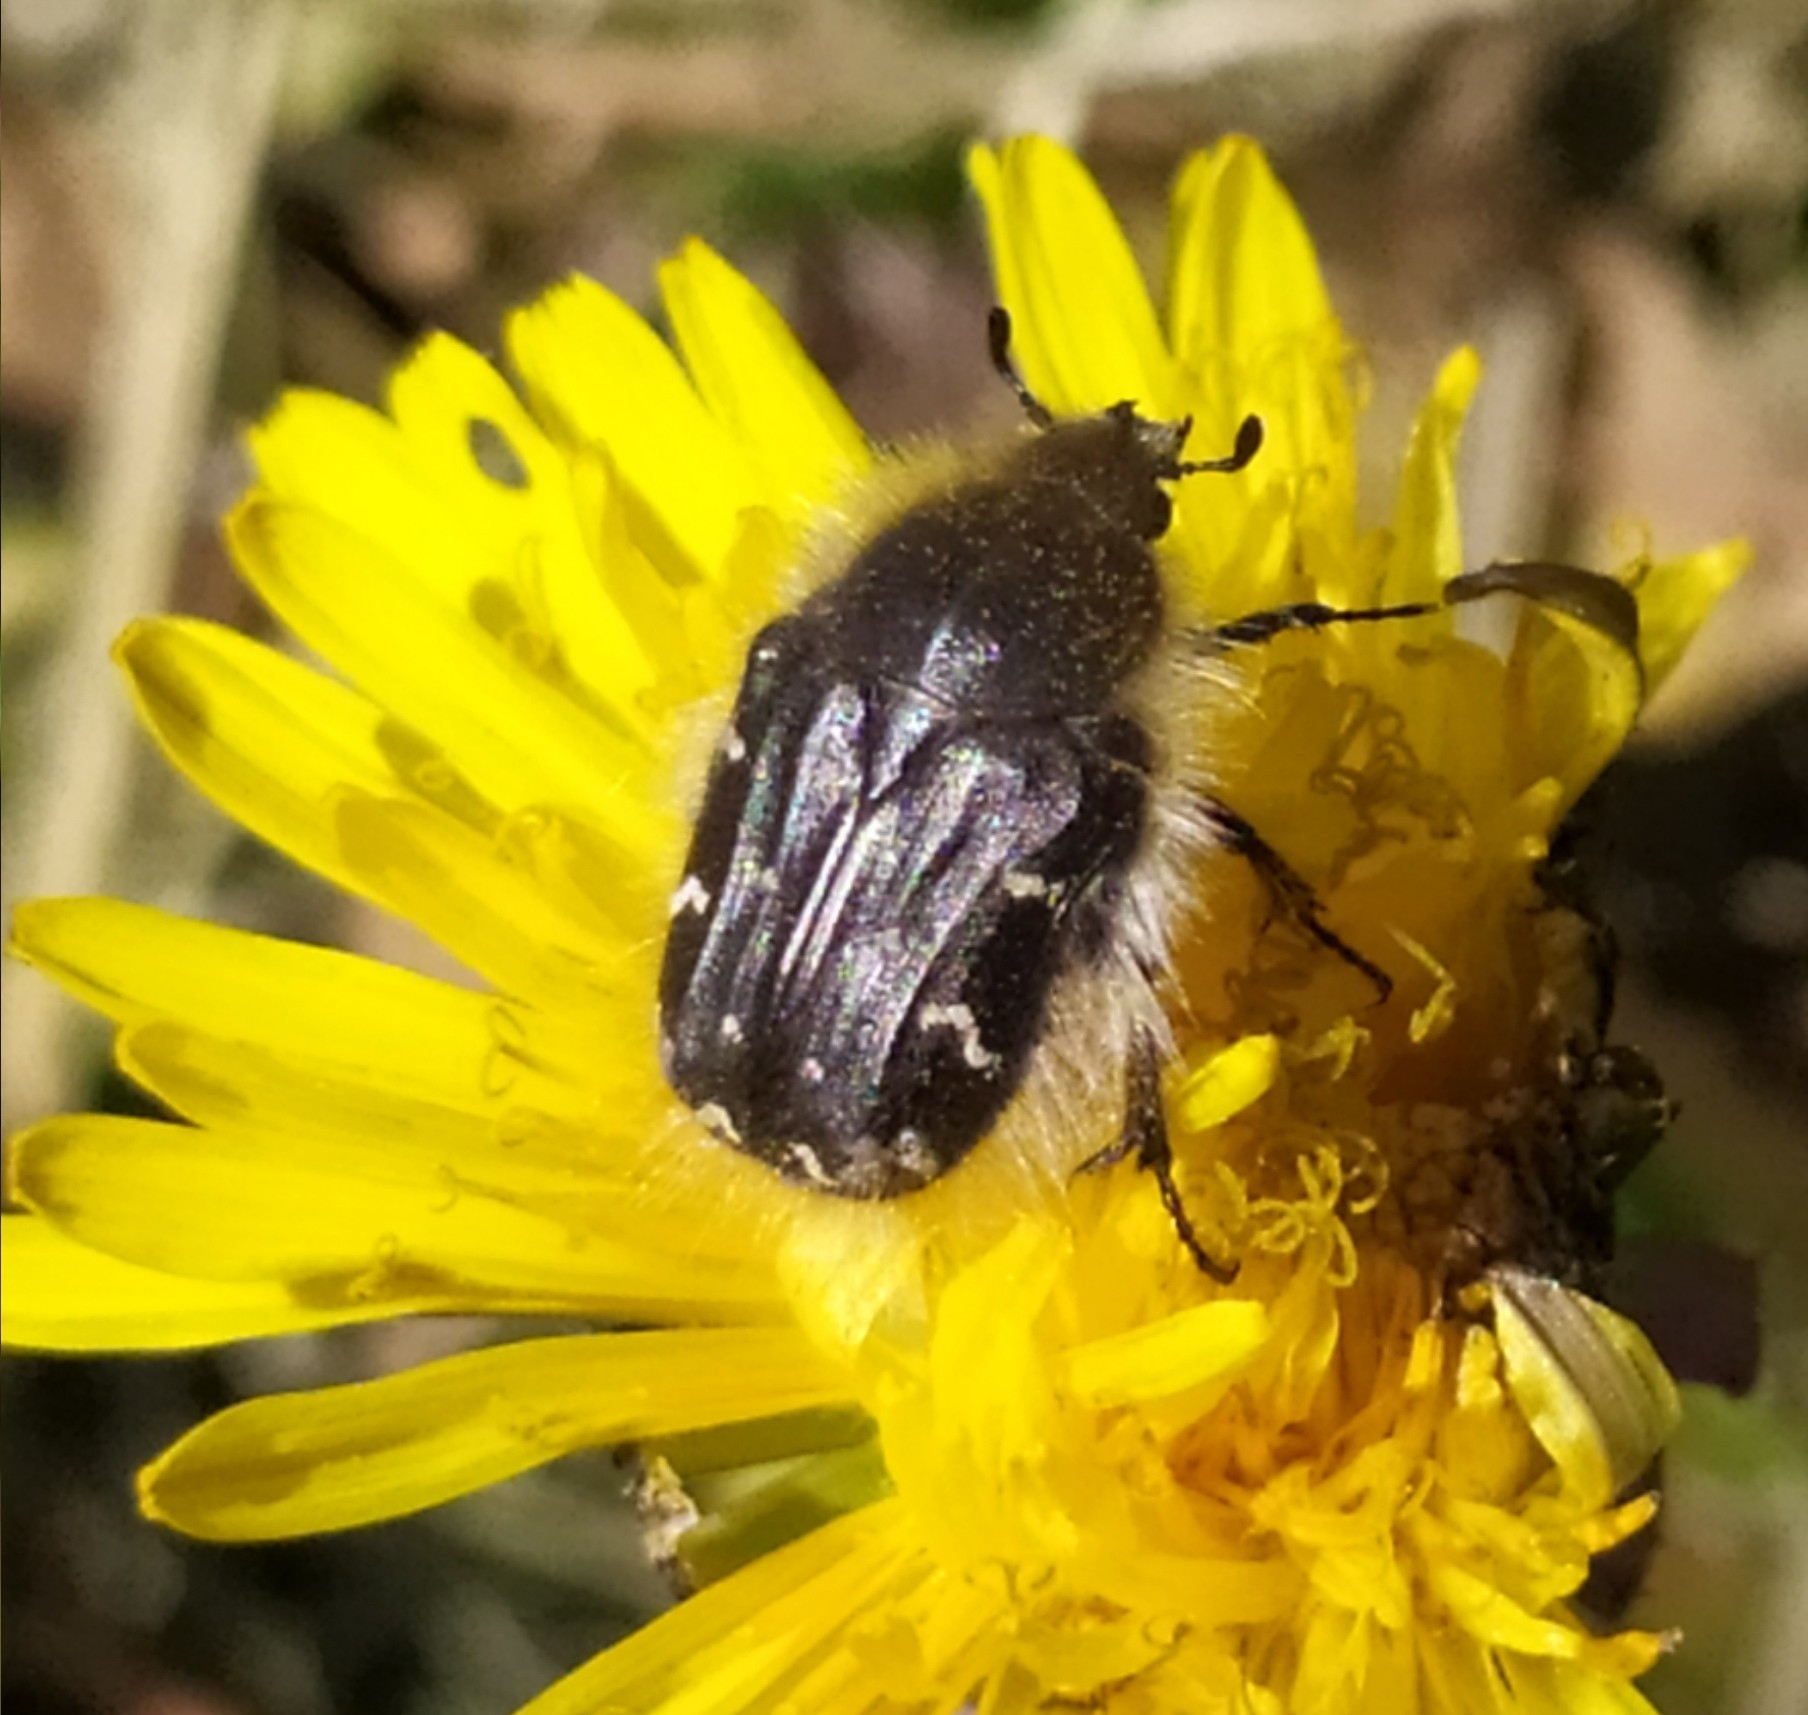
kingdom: Animalia
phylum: Arthropoda
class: Insecta
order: Coleoptera
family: Scarabaeidae
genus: Tropinota
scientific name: Tropinota hirta
